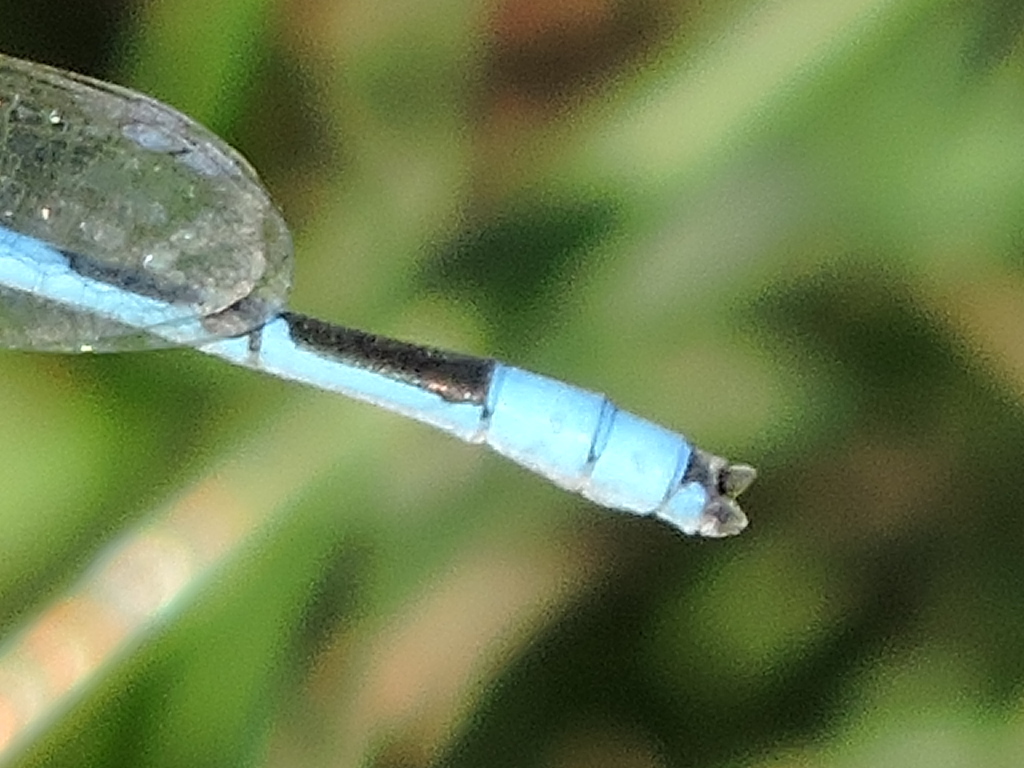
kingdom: Animalia
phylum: Arthropoda
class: Insecta
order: Odonata
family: Coenagrionidae
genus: Enallagma
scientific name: Enallagma civile
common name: Damselfly
